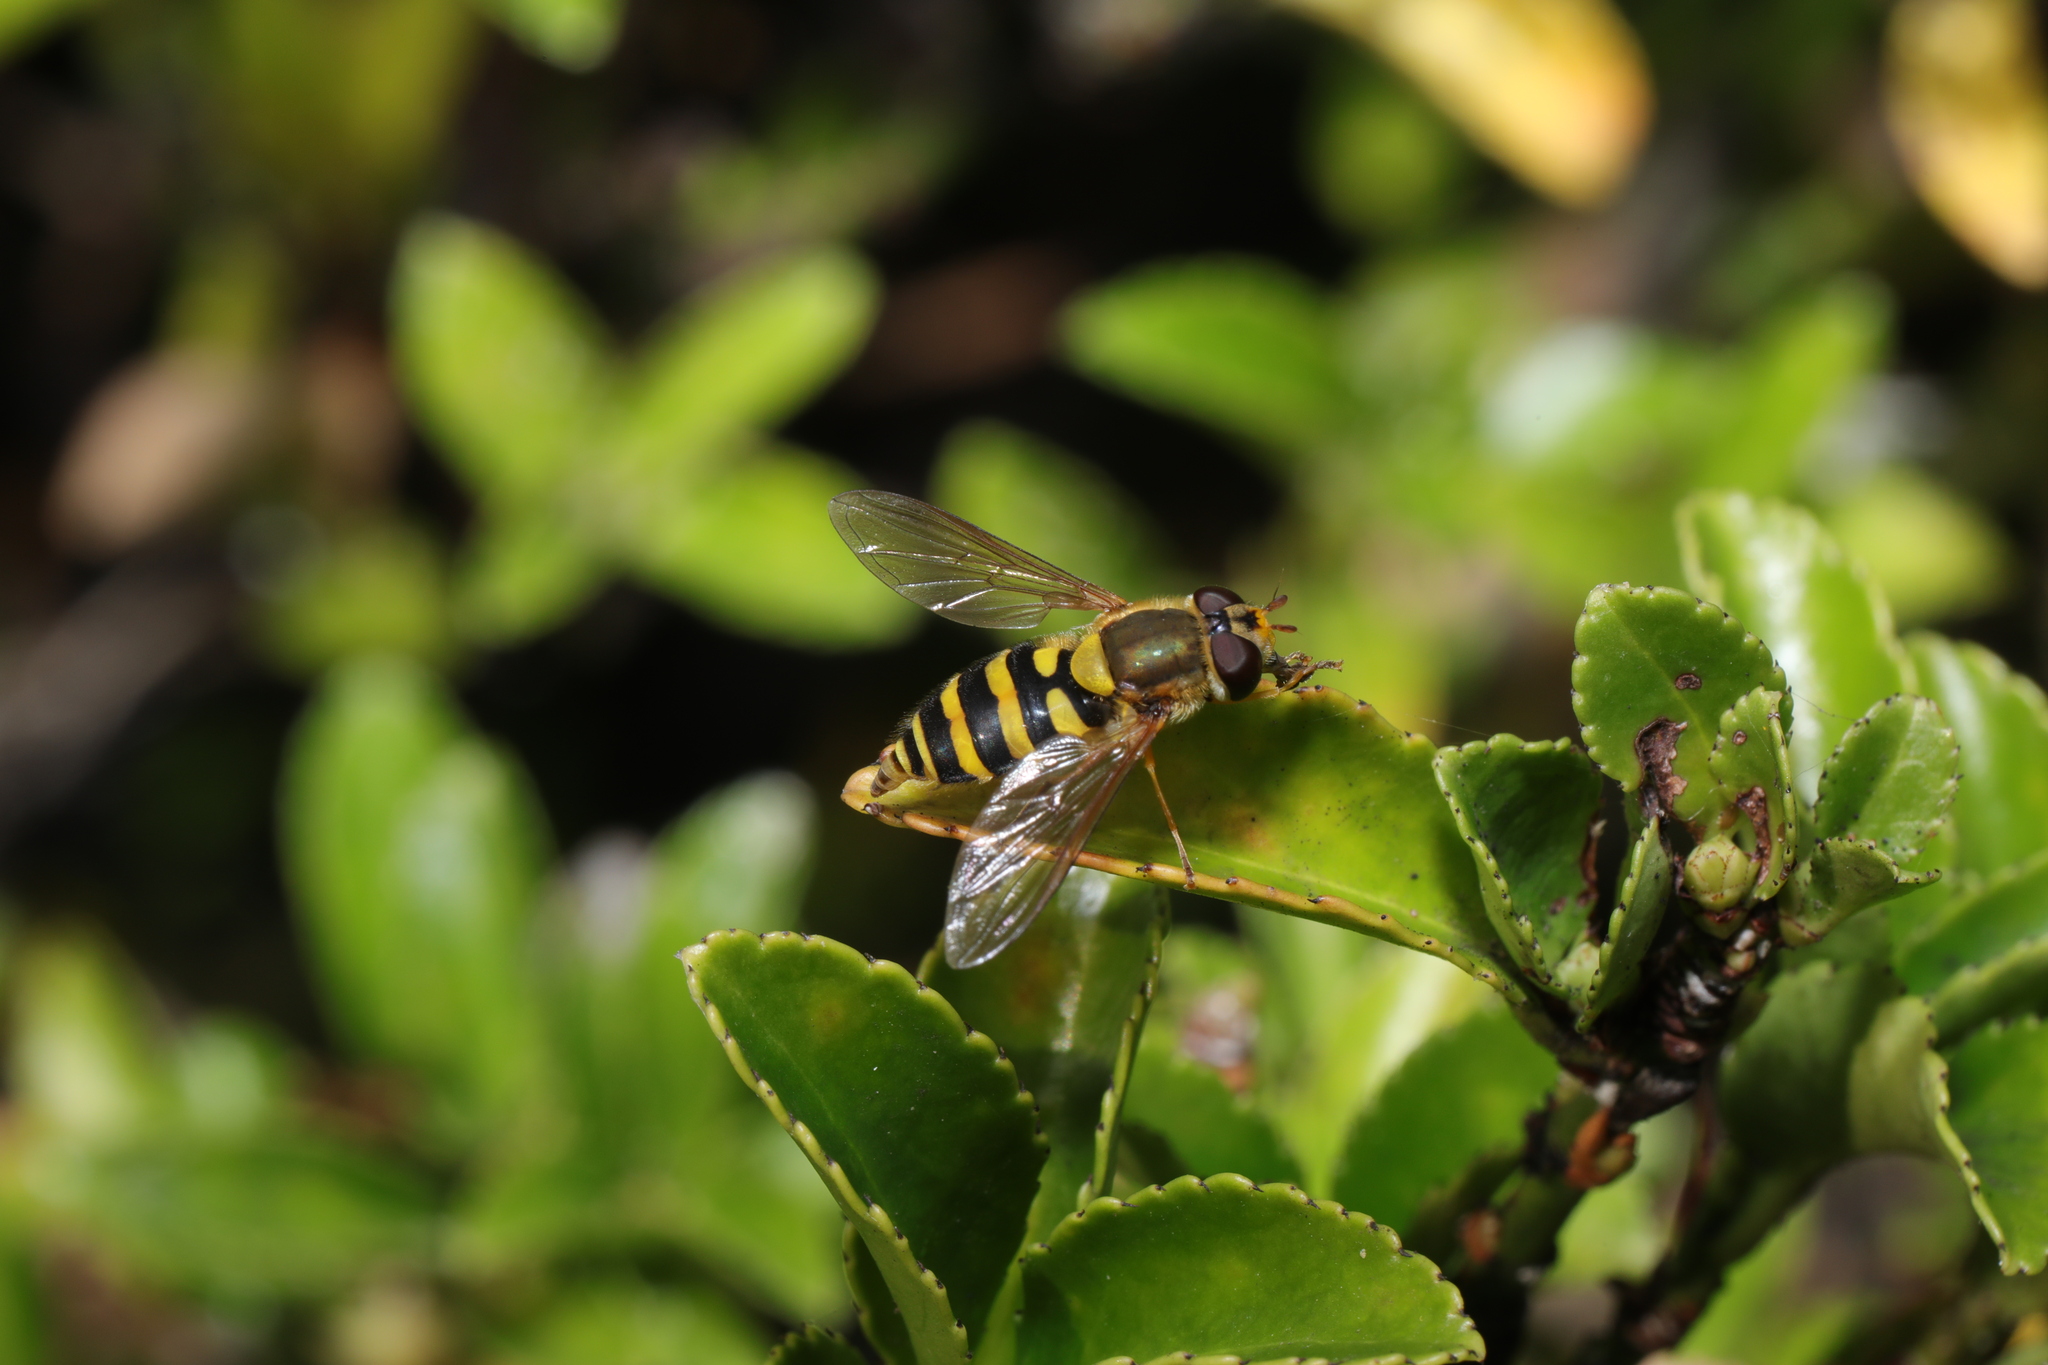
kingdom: Animalia
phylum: Arthropoda
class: Insecta
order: Diptera
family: Syrphidae
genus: Syrphus
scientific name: Syrphus
